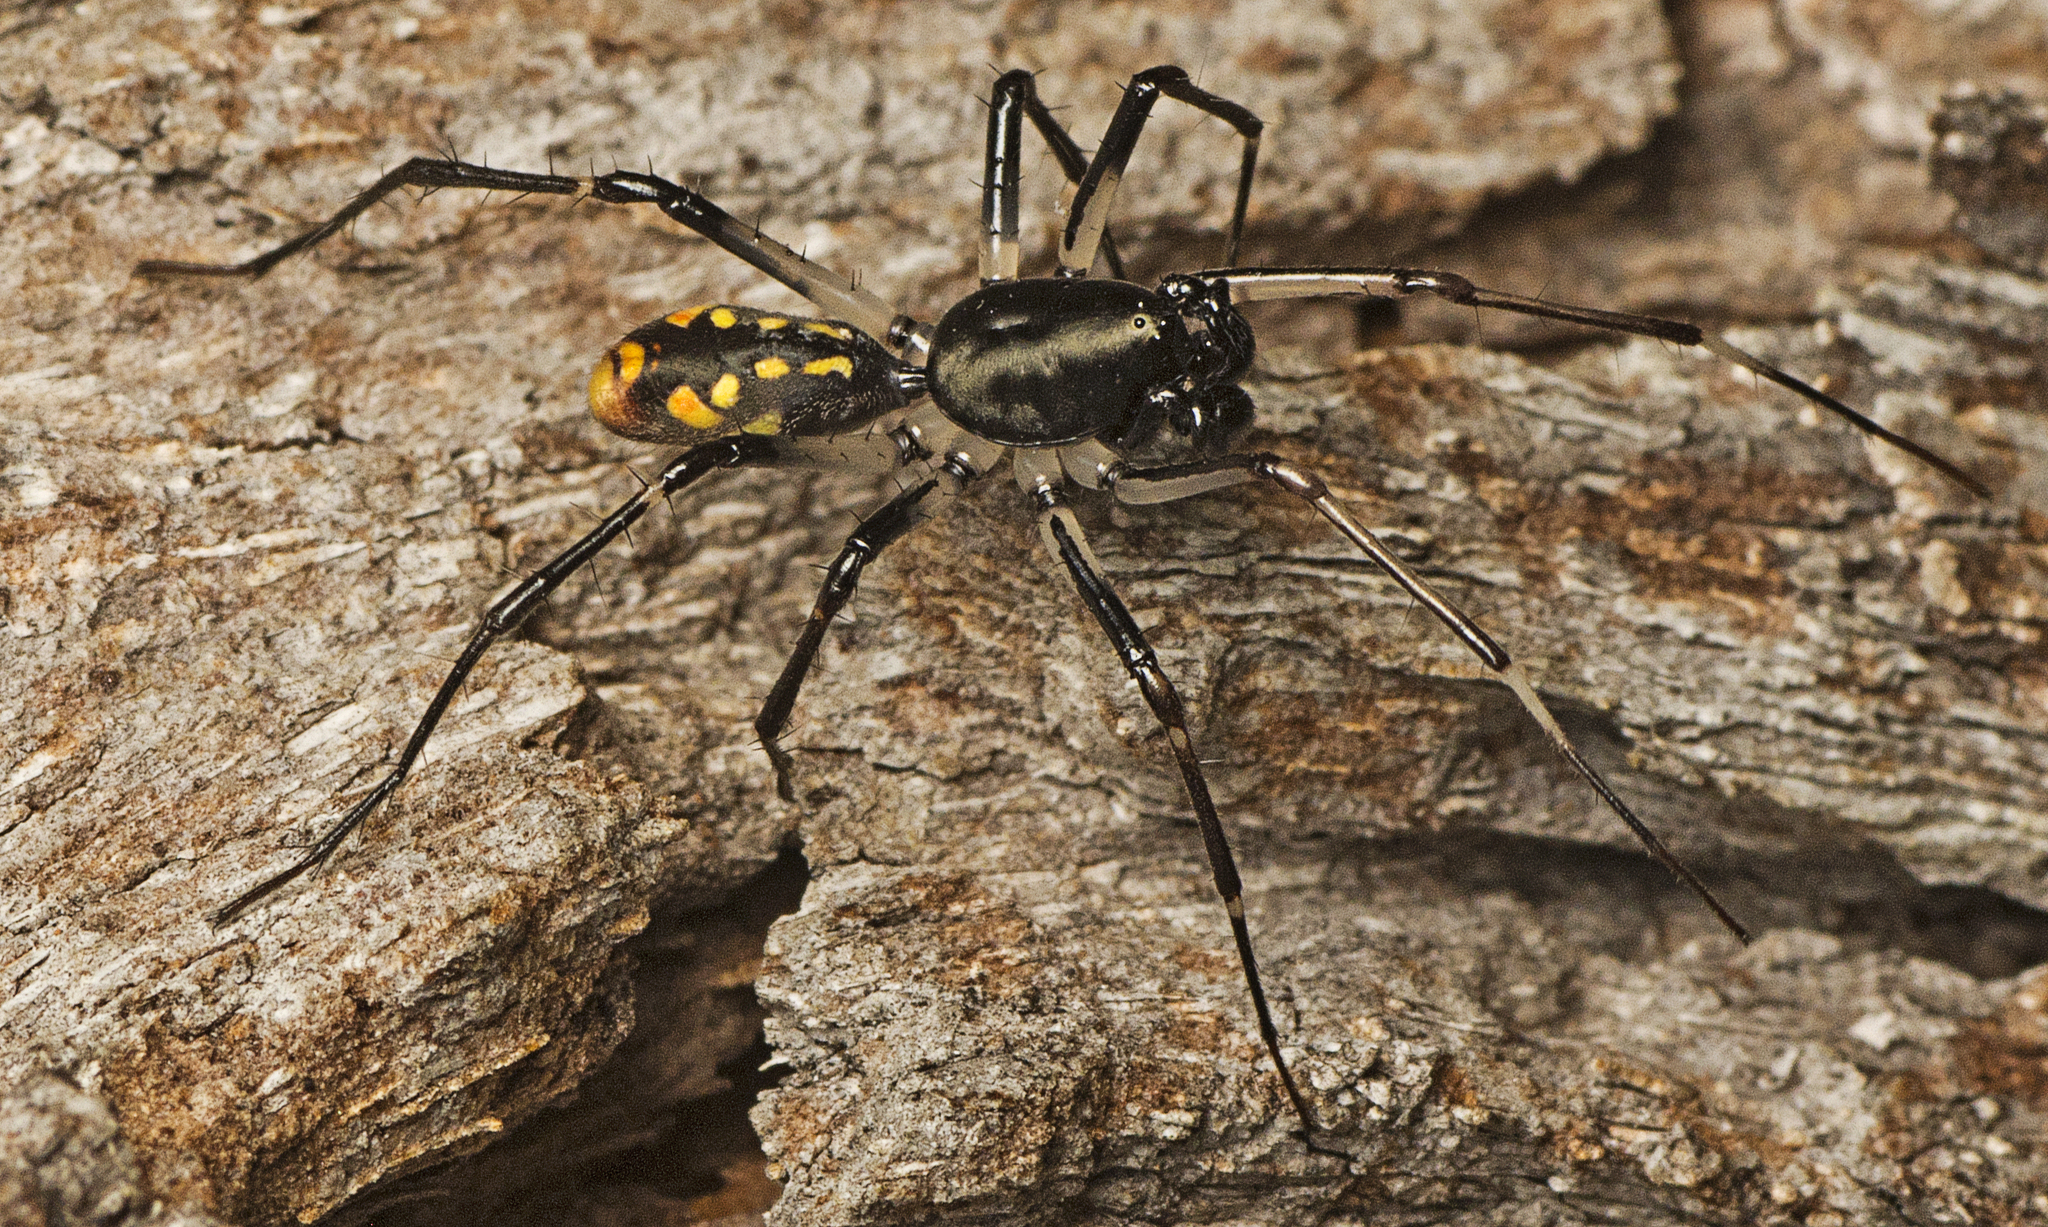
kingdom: Animalia
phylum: Arthropoda
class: Arachnida
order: Araneae
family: Zodariidae
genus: Subasteron
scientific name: Subasteron daviesae
